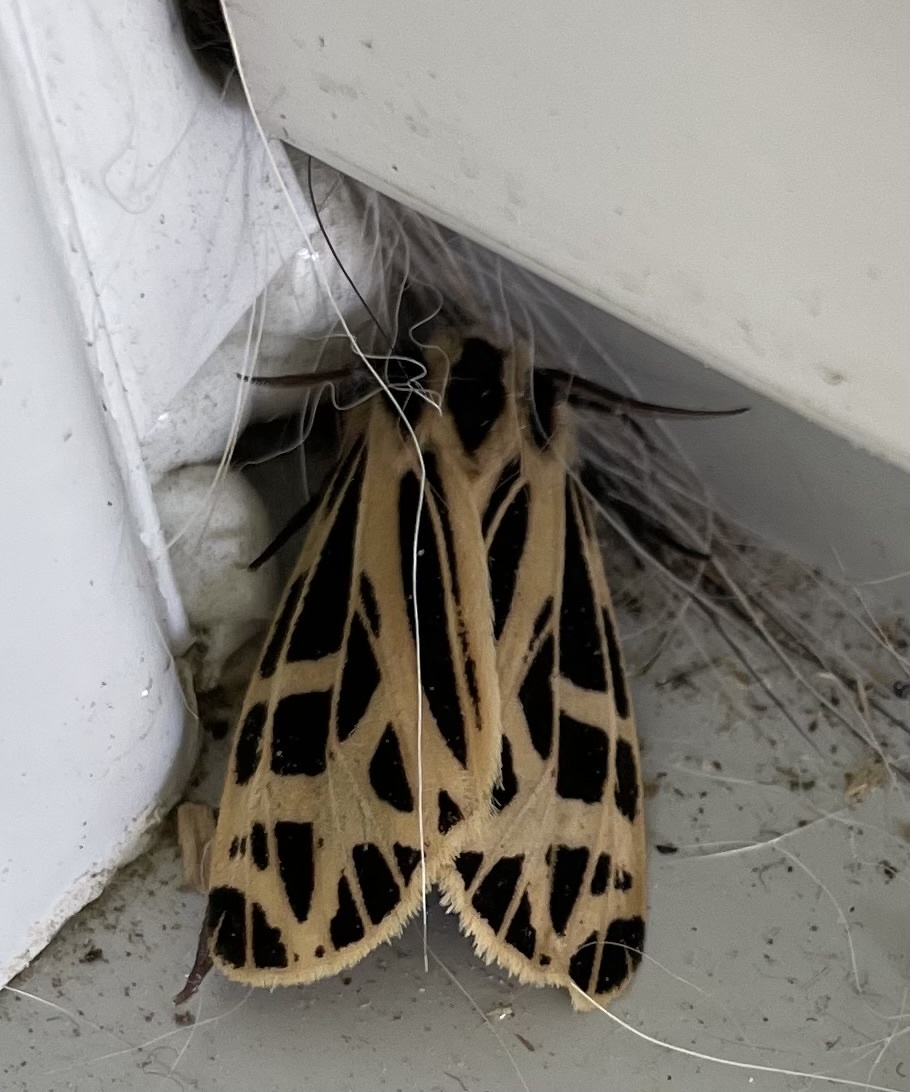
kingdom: Animalia
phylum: Arthropoda
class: Insecta
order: Lepidoptera
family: Erebidae
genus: Apantesis
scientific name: Apantesis
